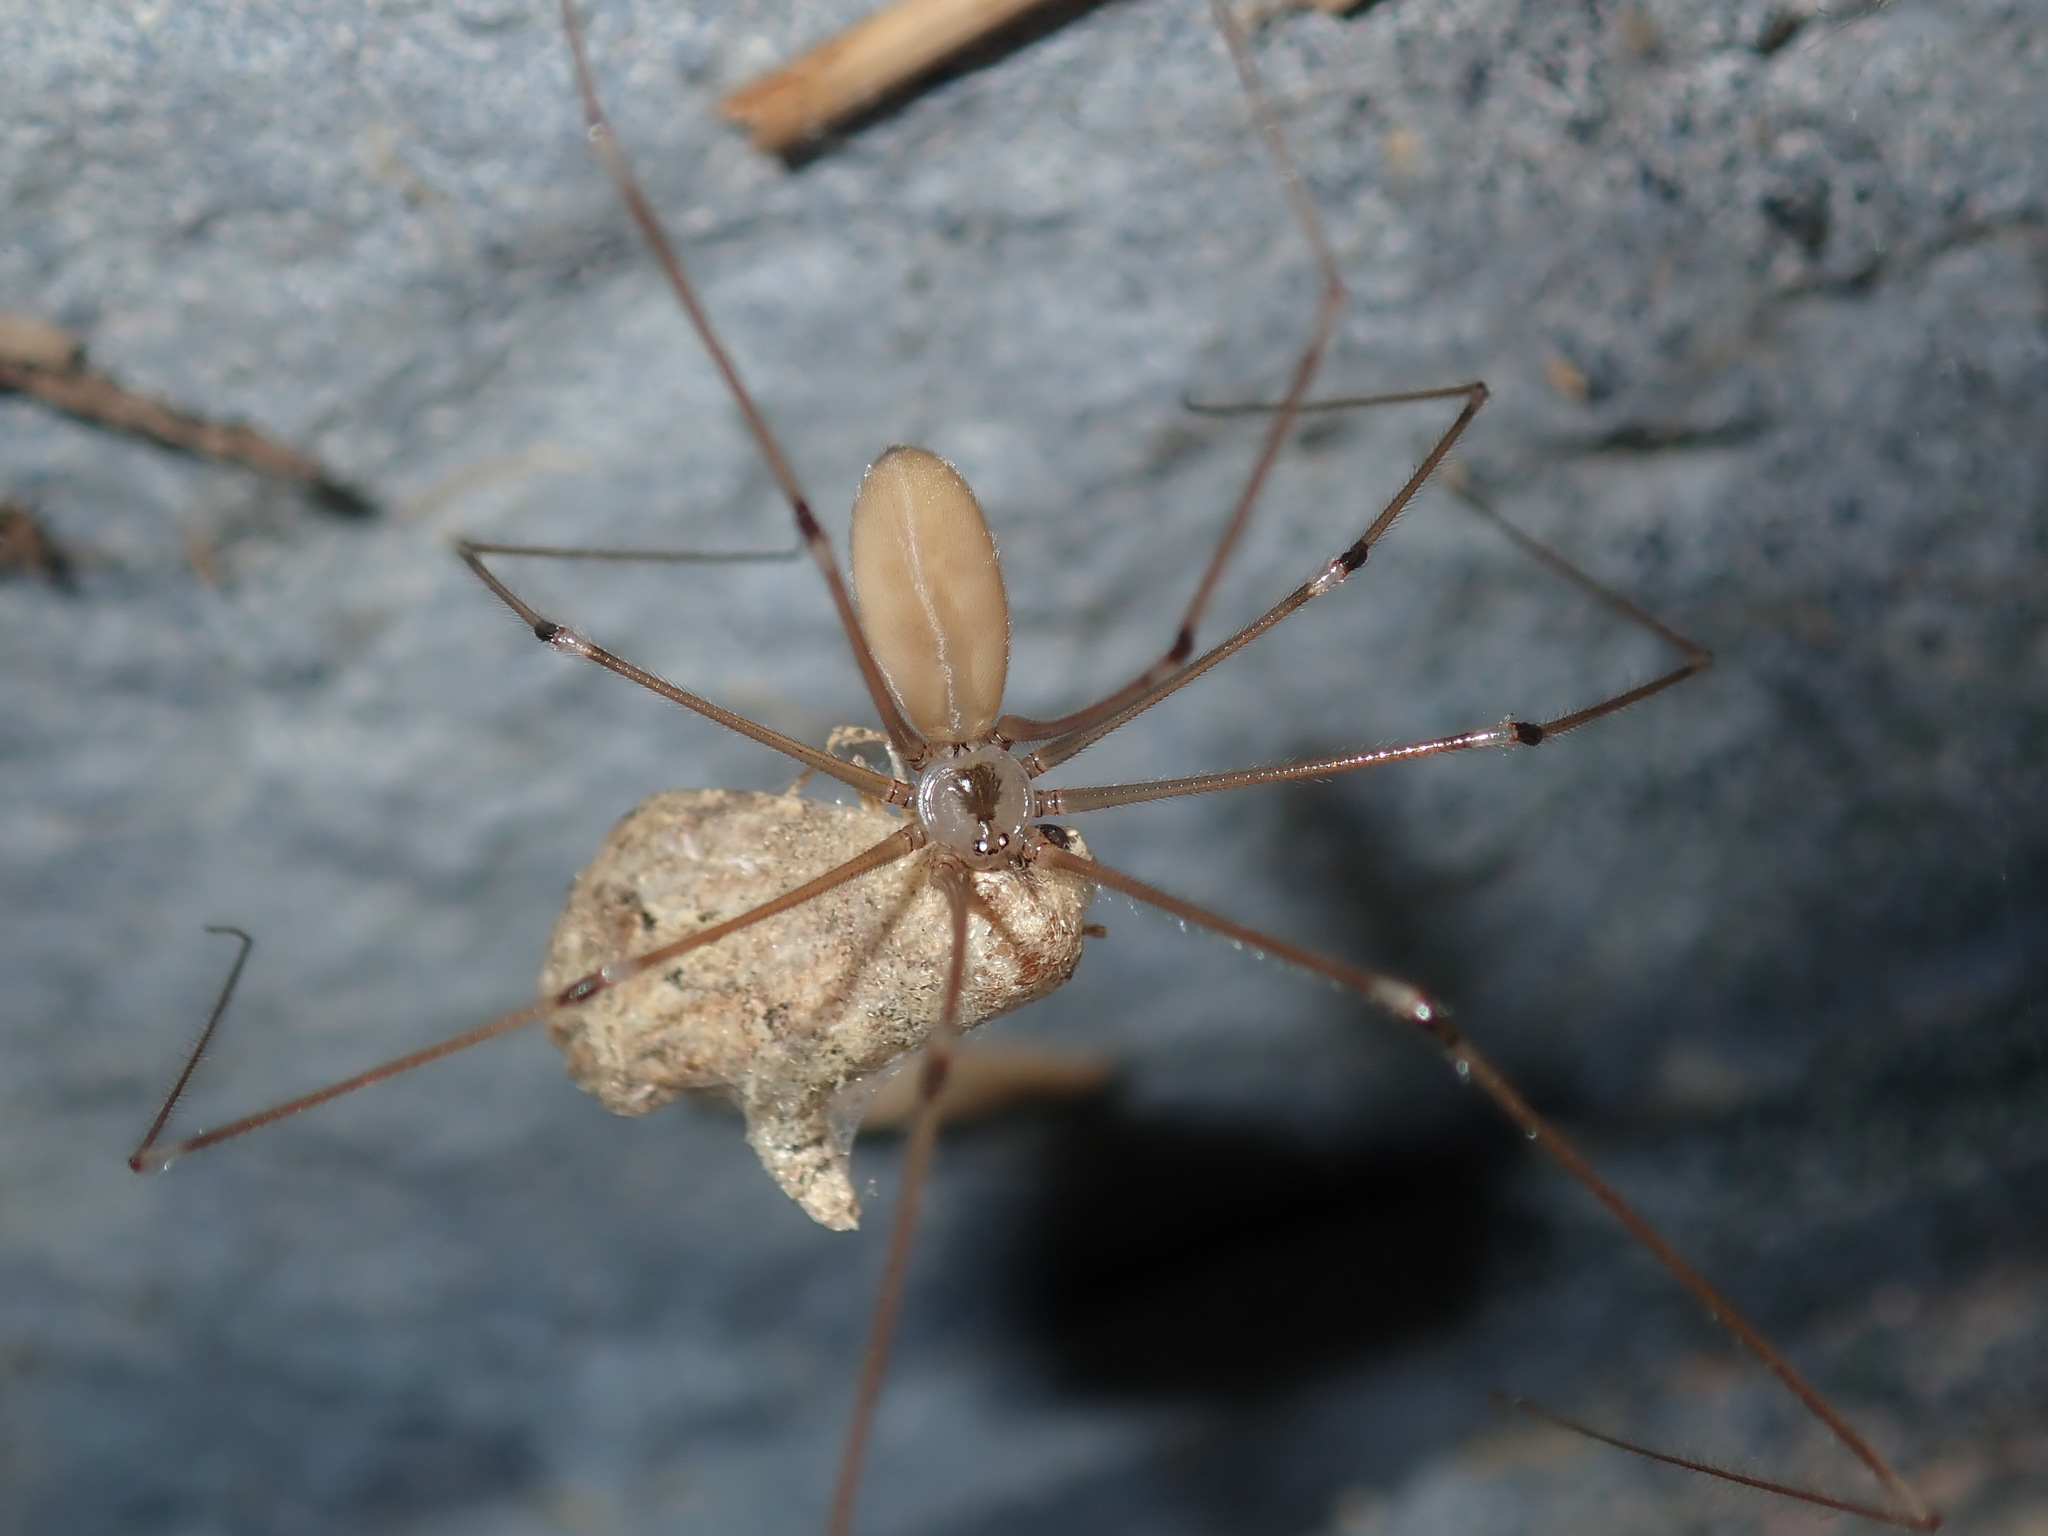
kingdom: Animalia
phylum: Arthropoda
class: Arachnida
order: Araneae
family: Pholcidae
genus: Pholcus
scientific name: Pholcus phalangioides
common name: Longbodied cellar spider
